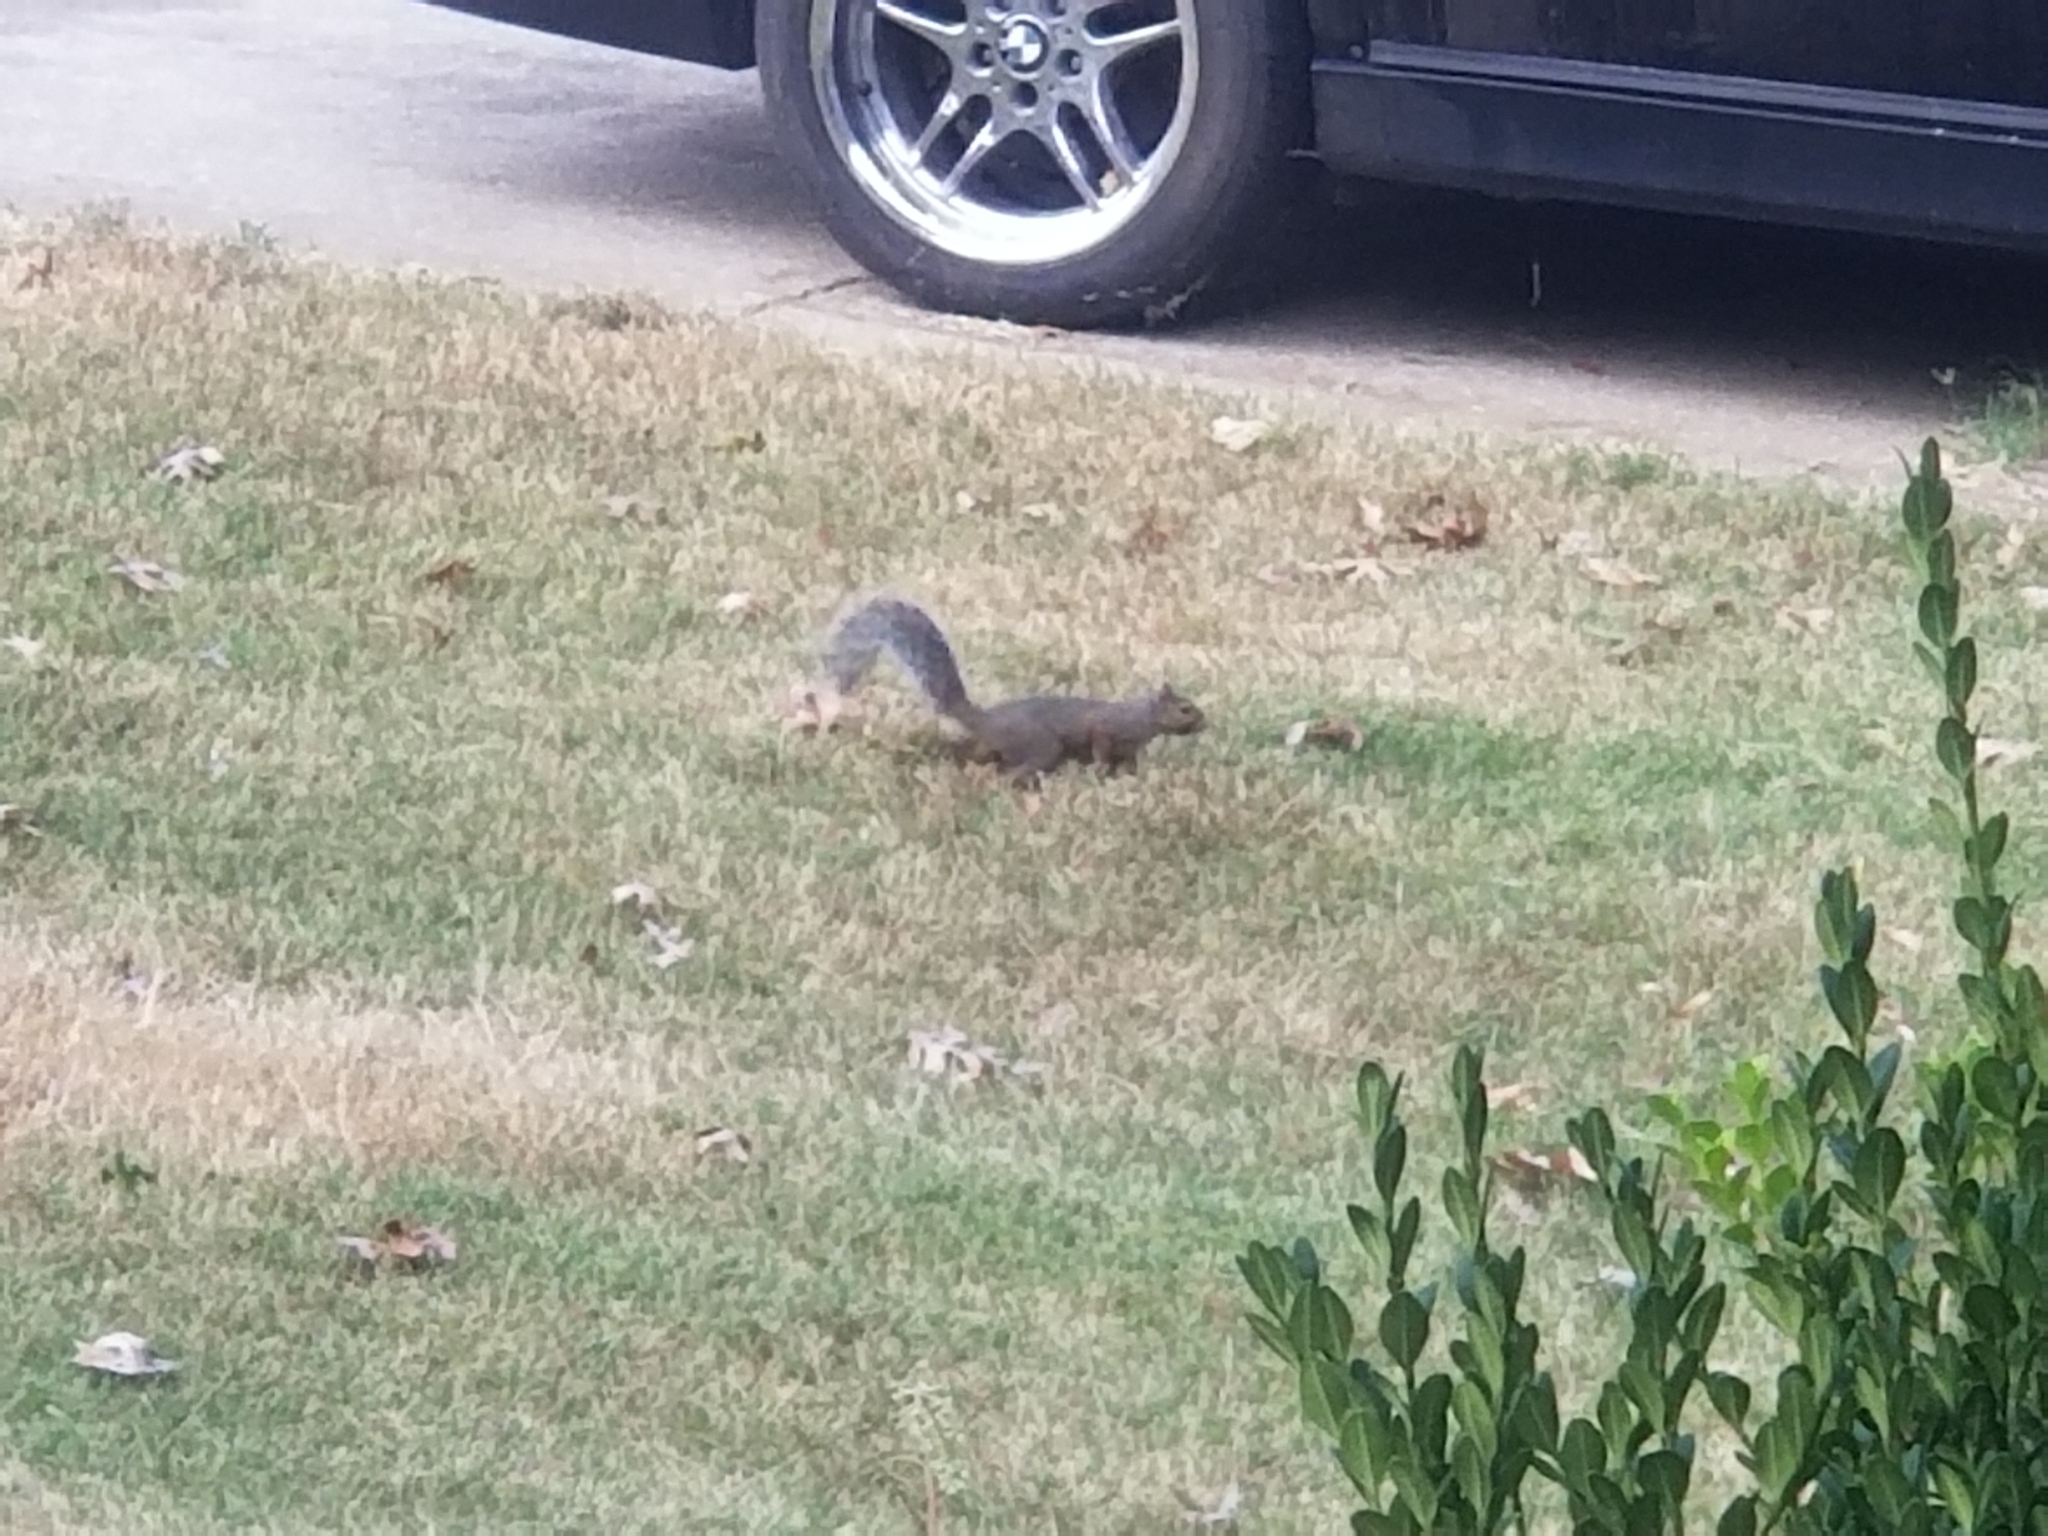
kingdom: Animalia
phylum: Chordata
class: Mammalia
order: Rodentia
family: Sciuridae
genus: Sciurus
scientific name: Sciurus carolinensis
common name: Eastern gray squirrel
